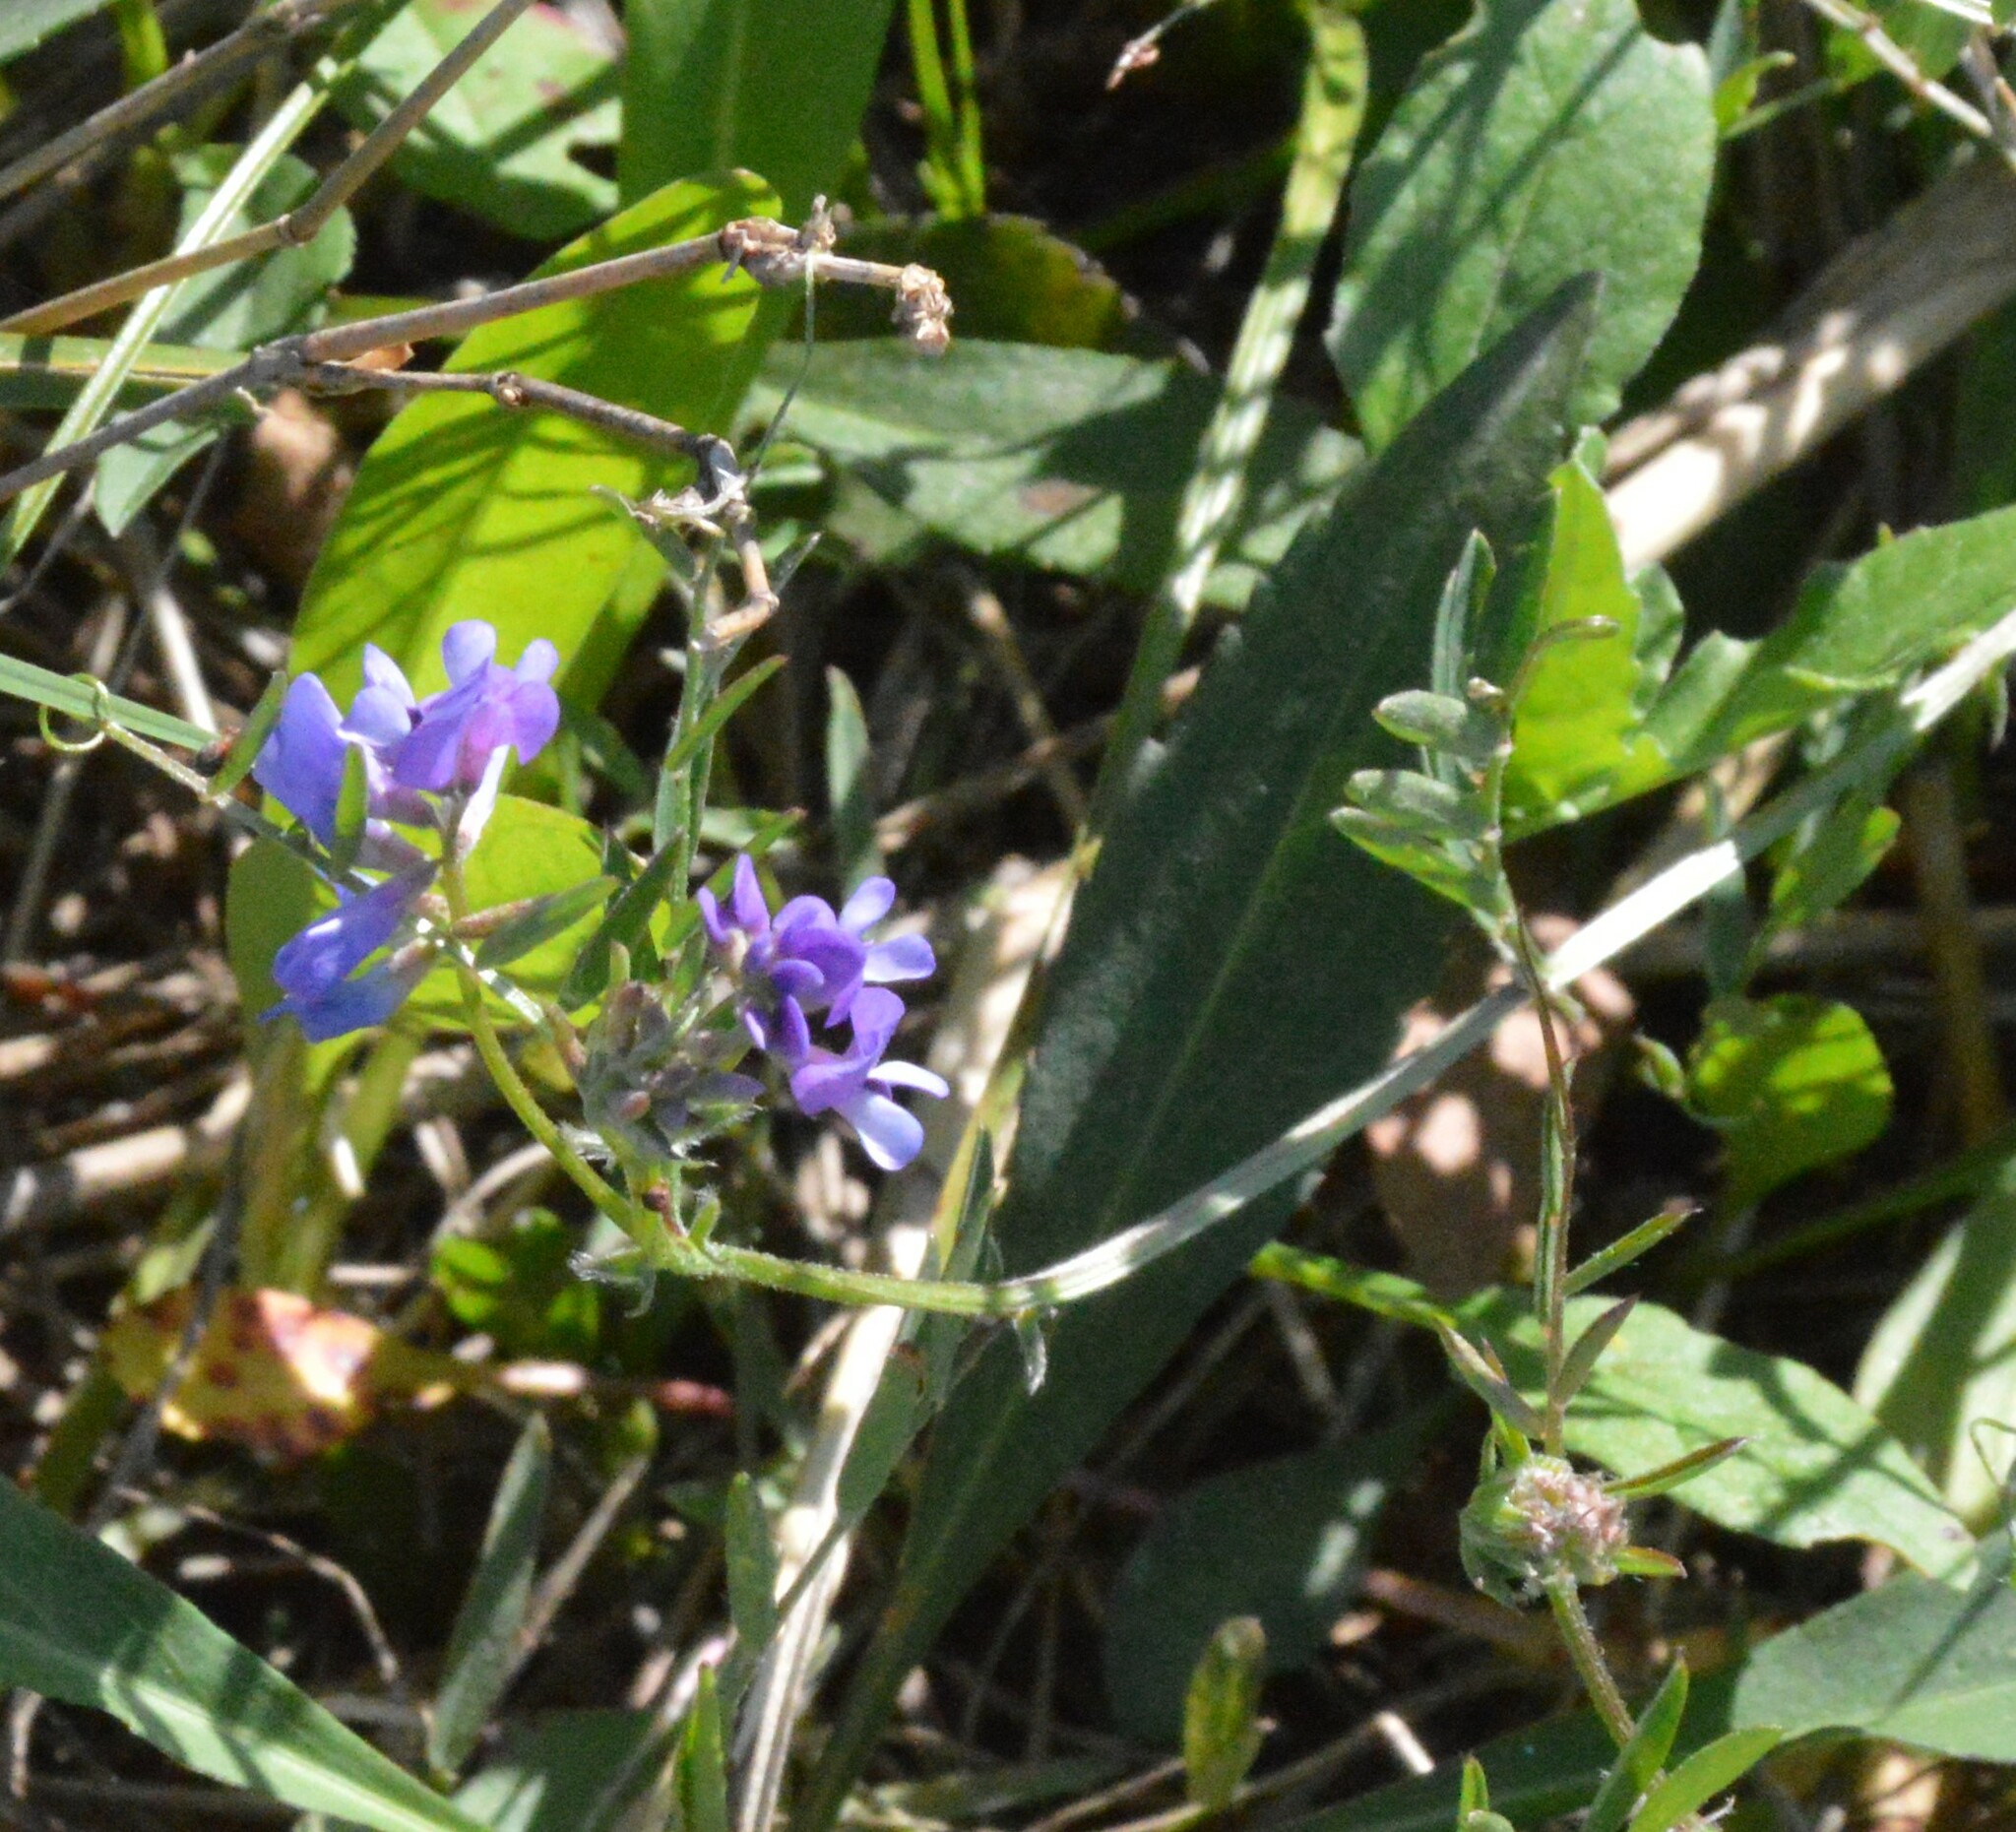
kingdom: Plantae
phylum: Tracheophyta
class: Magnoliopsida
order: Fabales
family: Fabaceae
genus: Vicia
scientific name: Vicia ludoviciana
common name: Louisiana vetch
